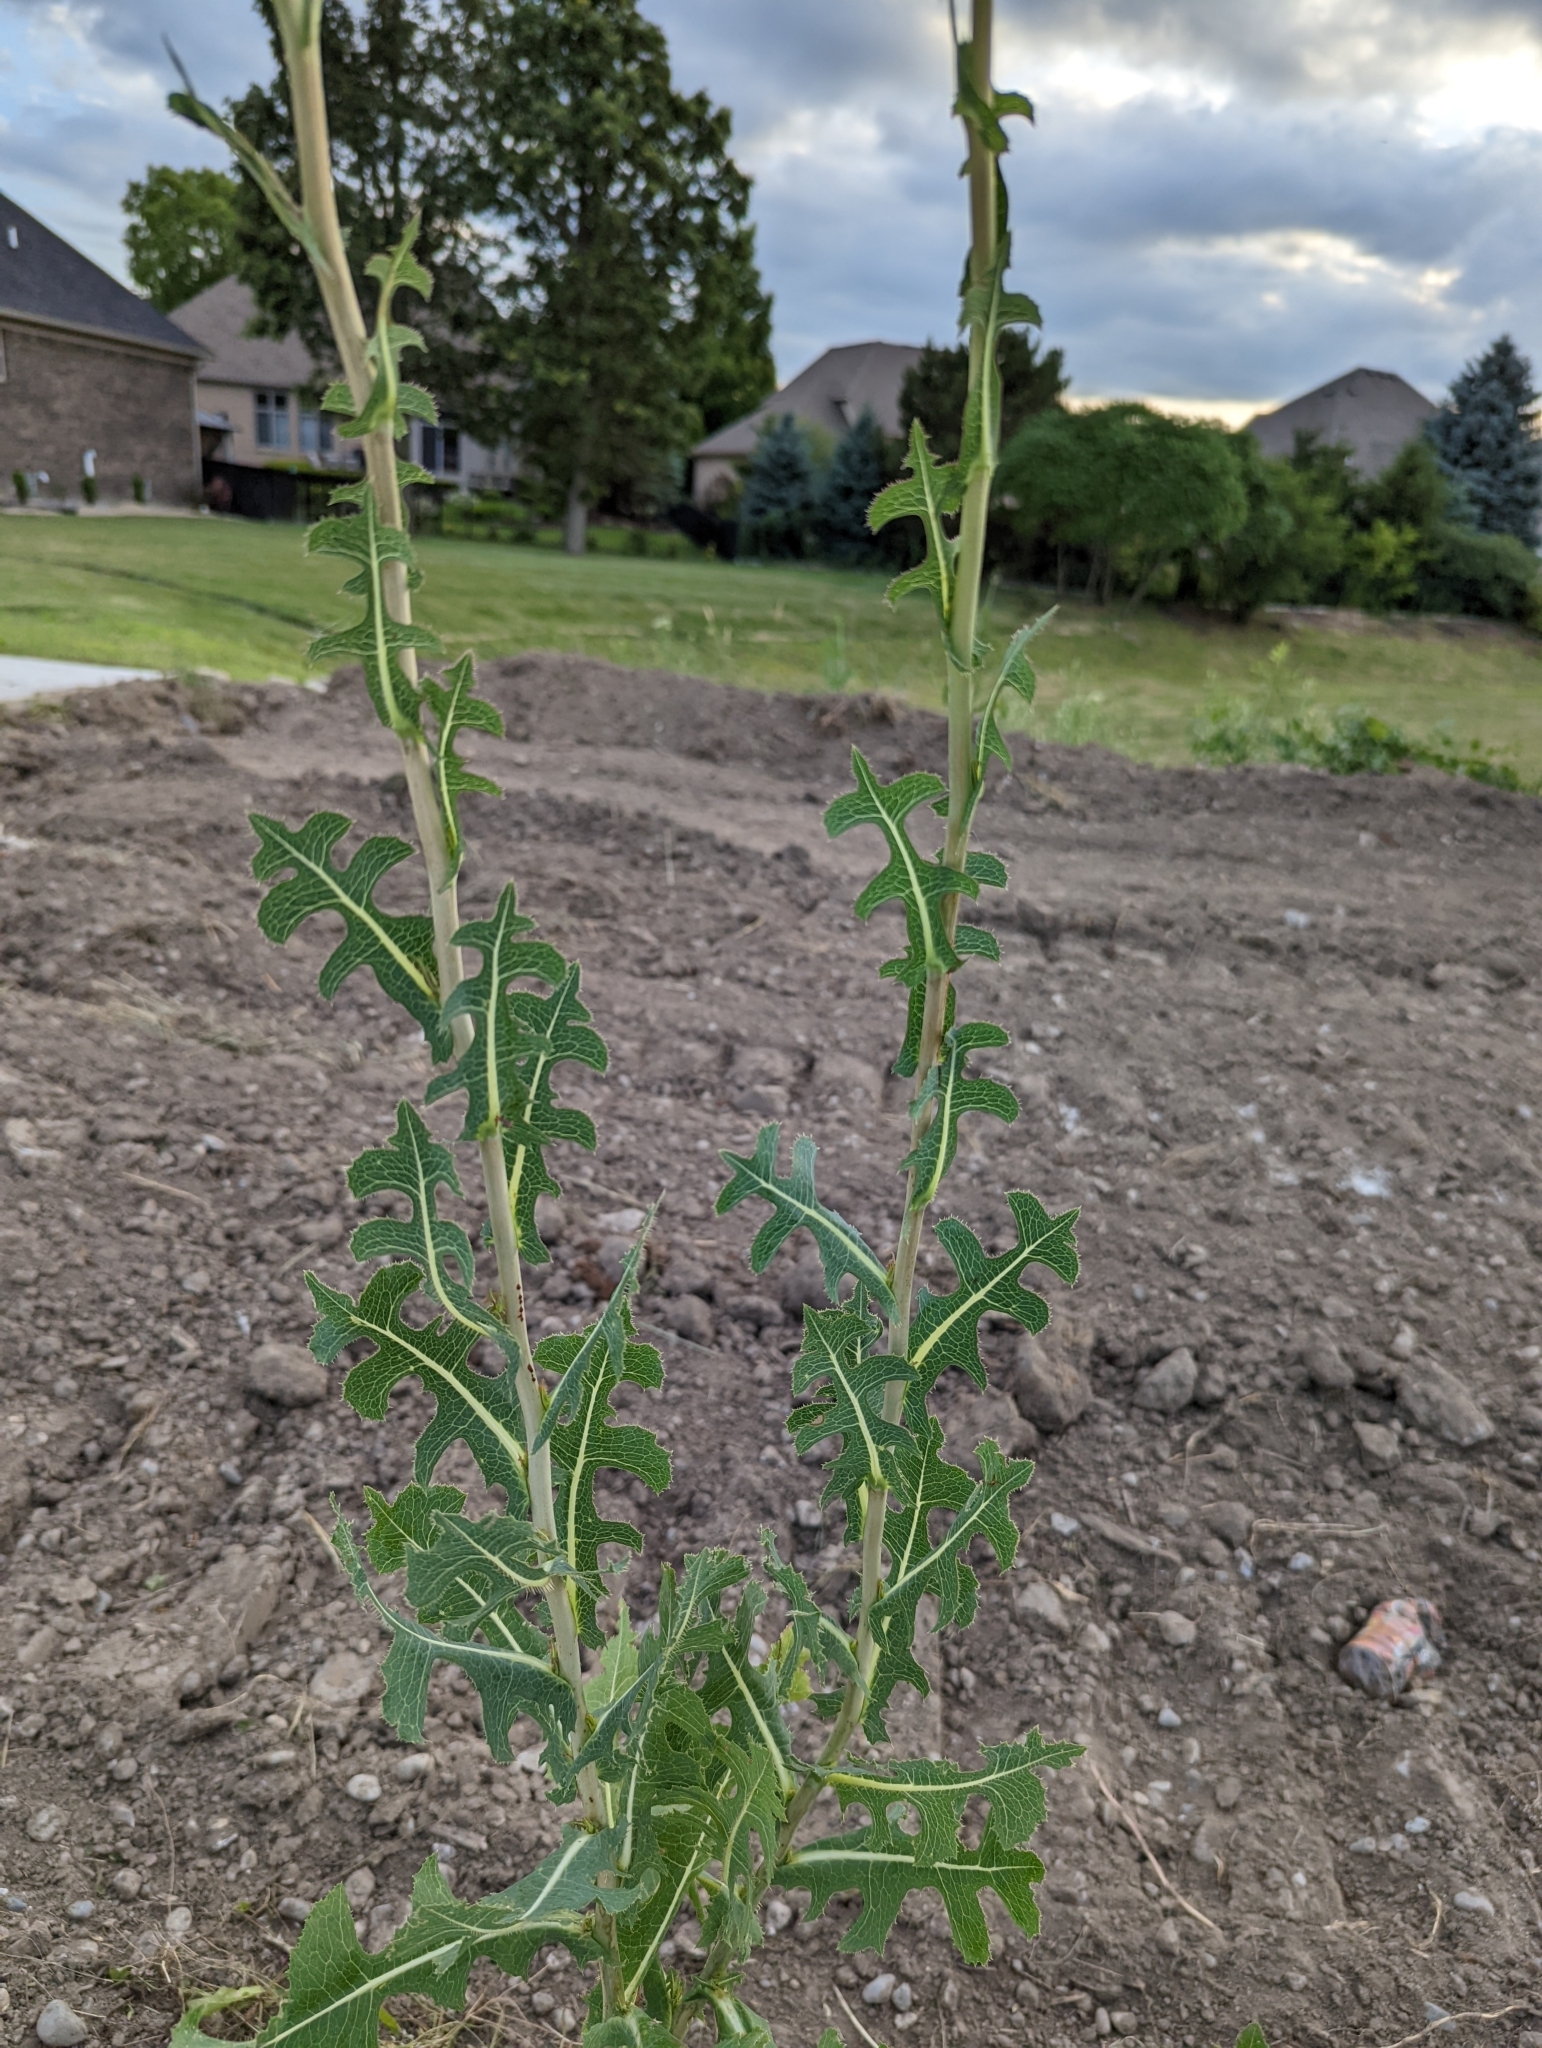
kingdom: Plantae
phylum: Tracheophyta
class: Magnoliopsida
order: Asterales
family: Asteraceae
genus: Lactuca
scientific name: Lactuca serriola
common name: Prickly lettuce
